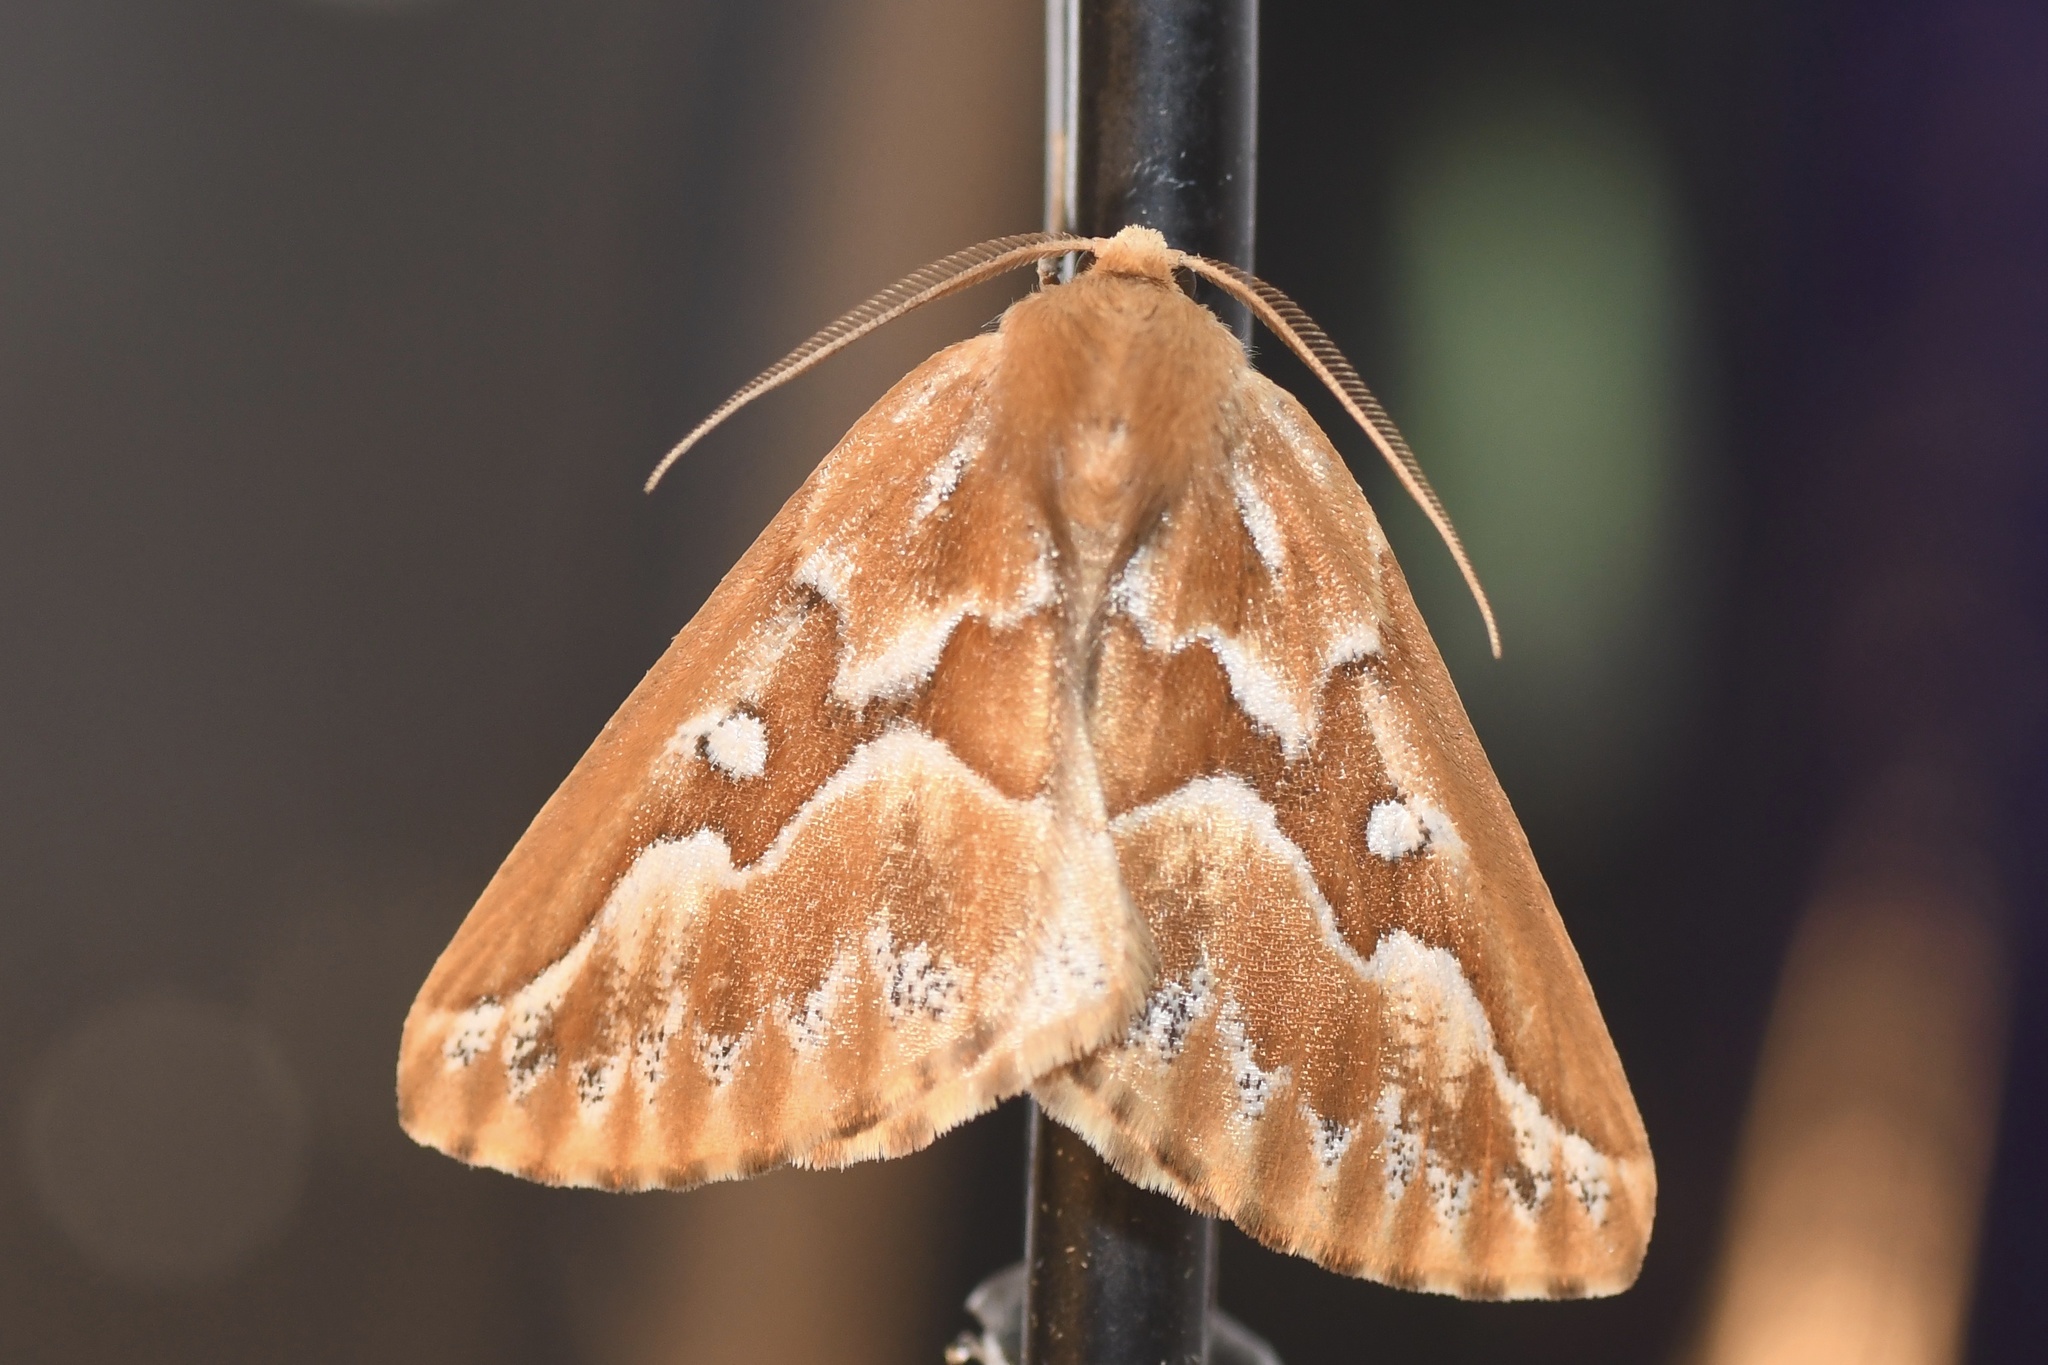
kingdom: Animalia
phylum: Arthropoda
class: Insecta
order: Lepidoptera
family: Geometridae
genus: Caripeta
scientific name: Caripeta piniata
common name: Northern pine looper moth
